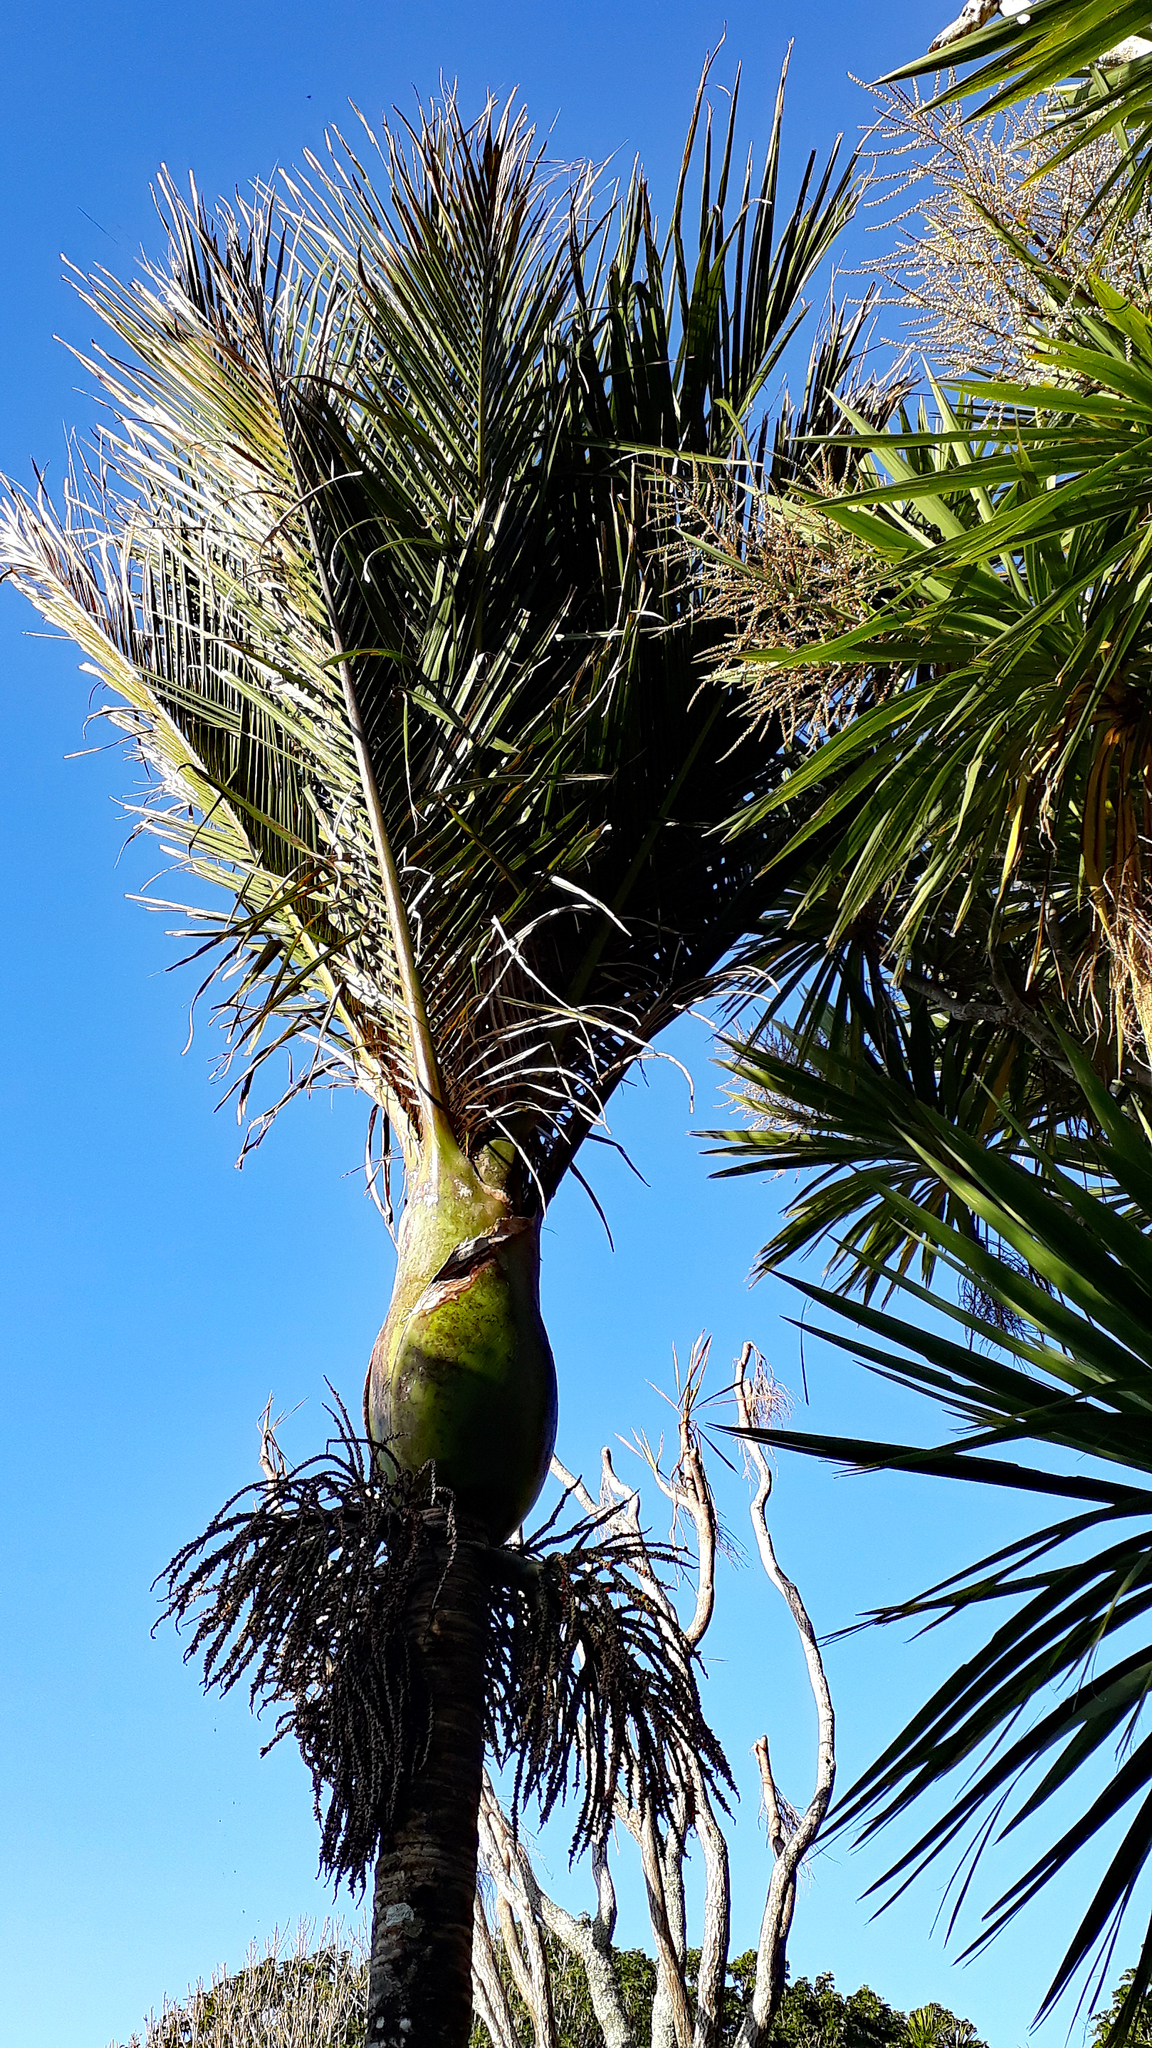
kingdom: Plantae
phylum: Tracheophyta
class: Liliopsida
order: Arecales
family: Arecaceae
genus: Rhopalostylis
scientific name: Rhopalostylis sapida
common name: Feather-duster palm
